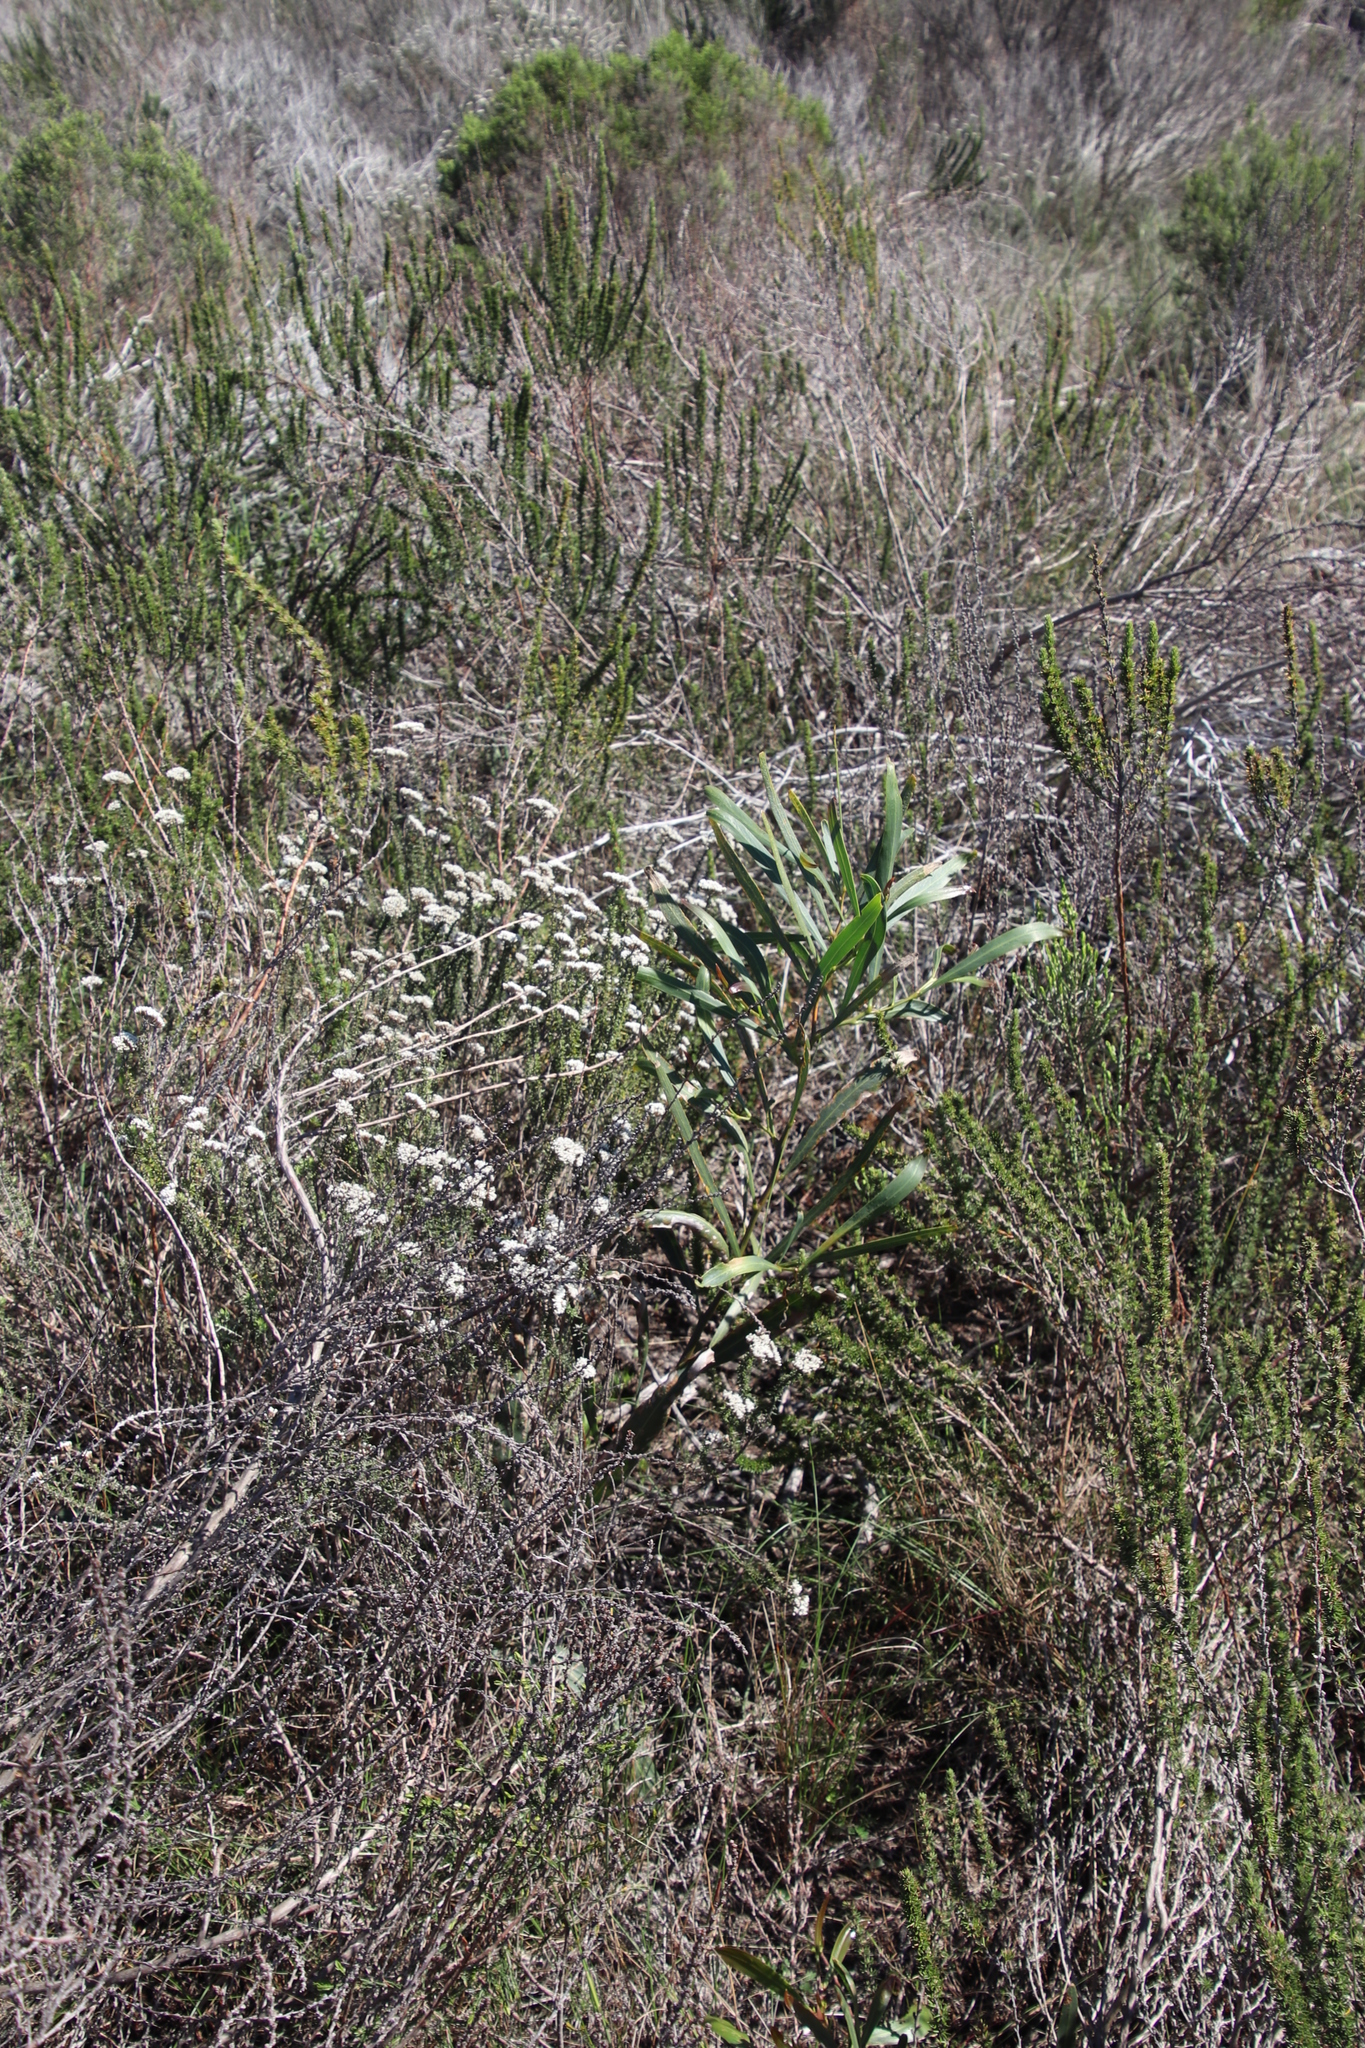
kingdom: Plantae
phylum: Tracheophyta
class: Magnoliopsida
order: Fabales
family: Fabaceae
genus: Acacia
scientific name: Acacia saligna
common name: Orange wattle
